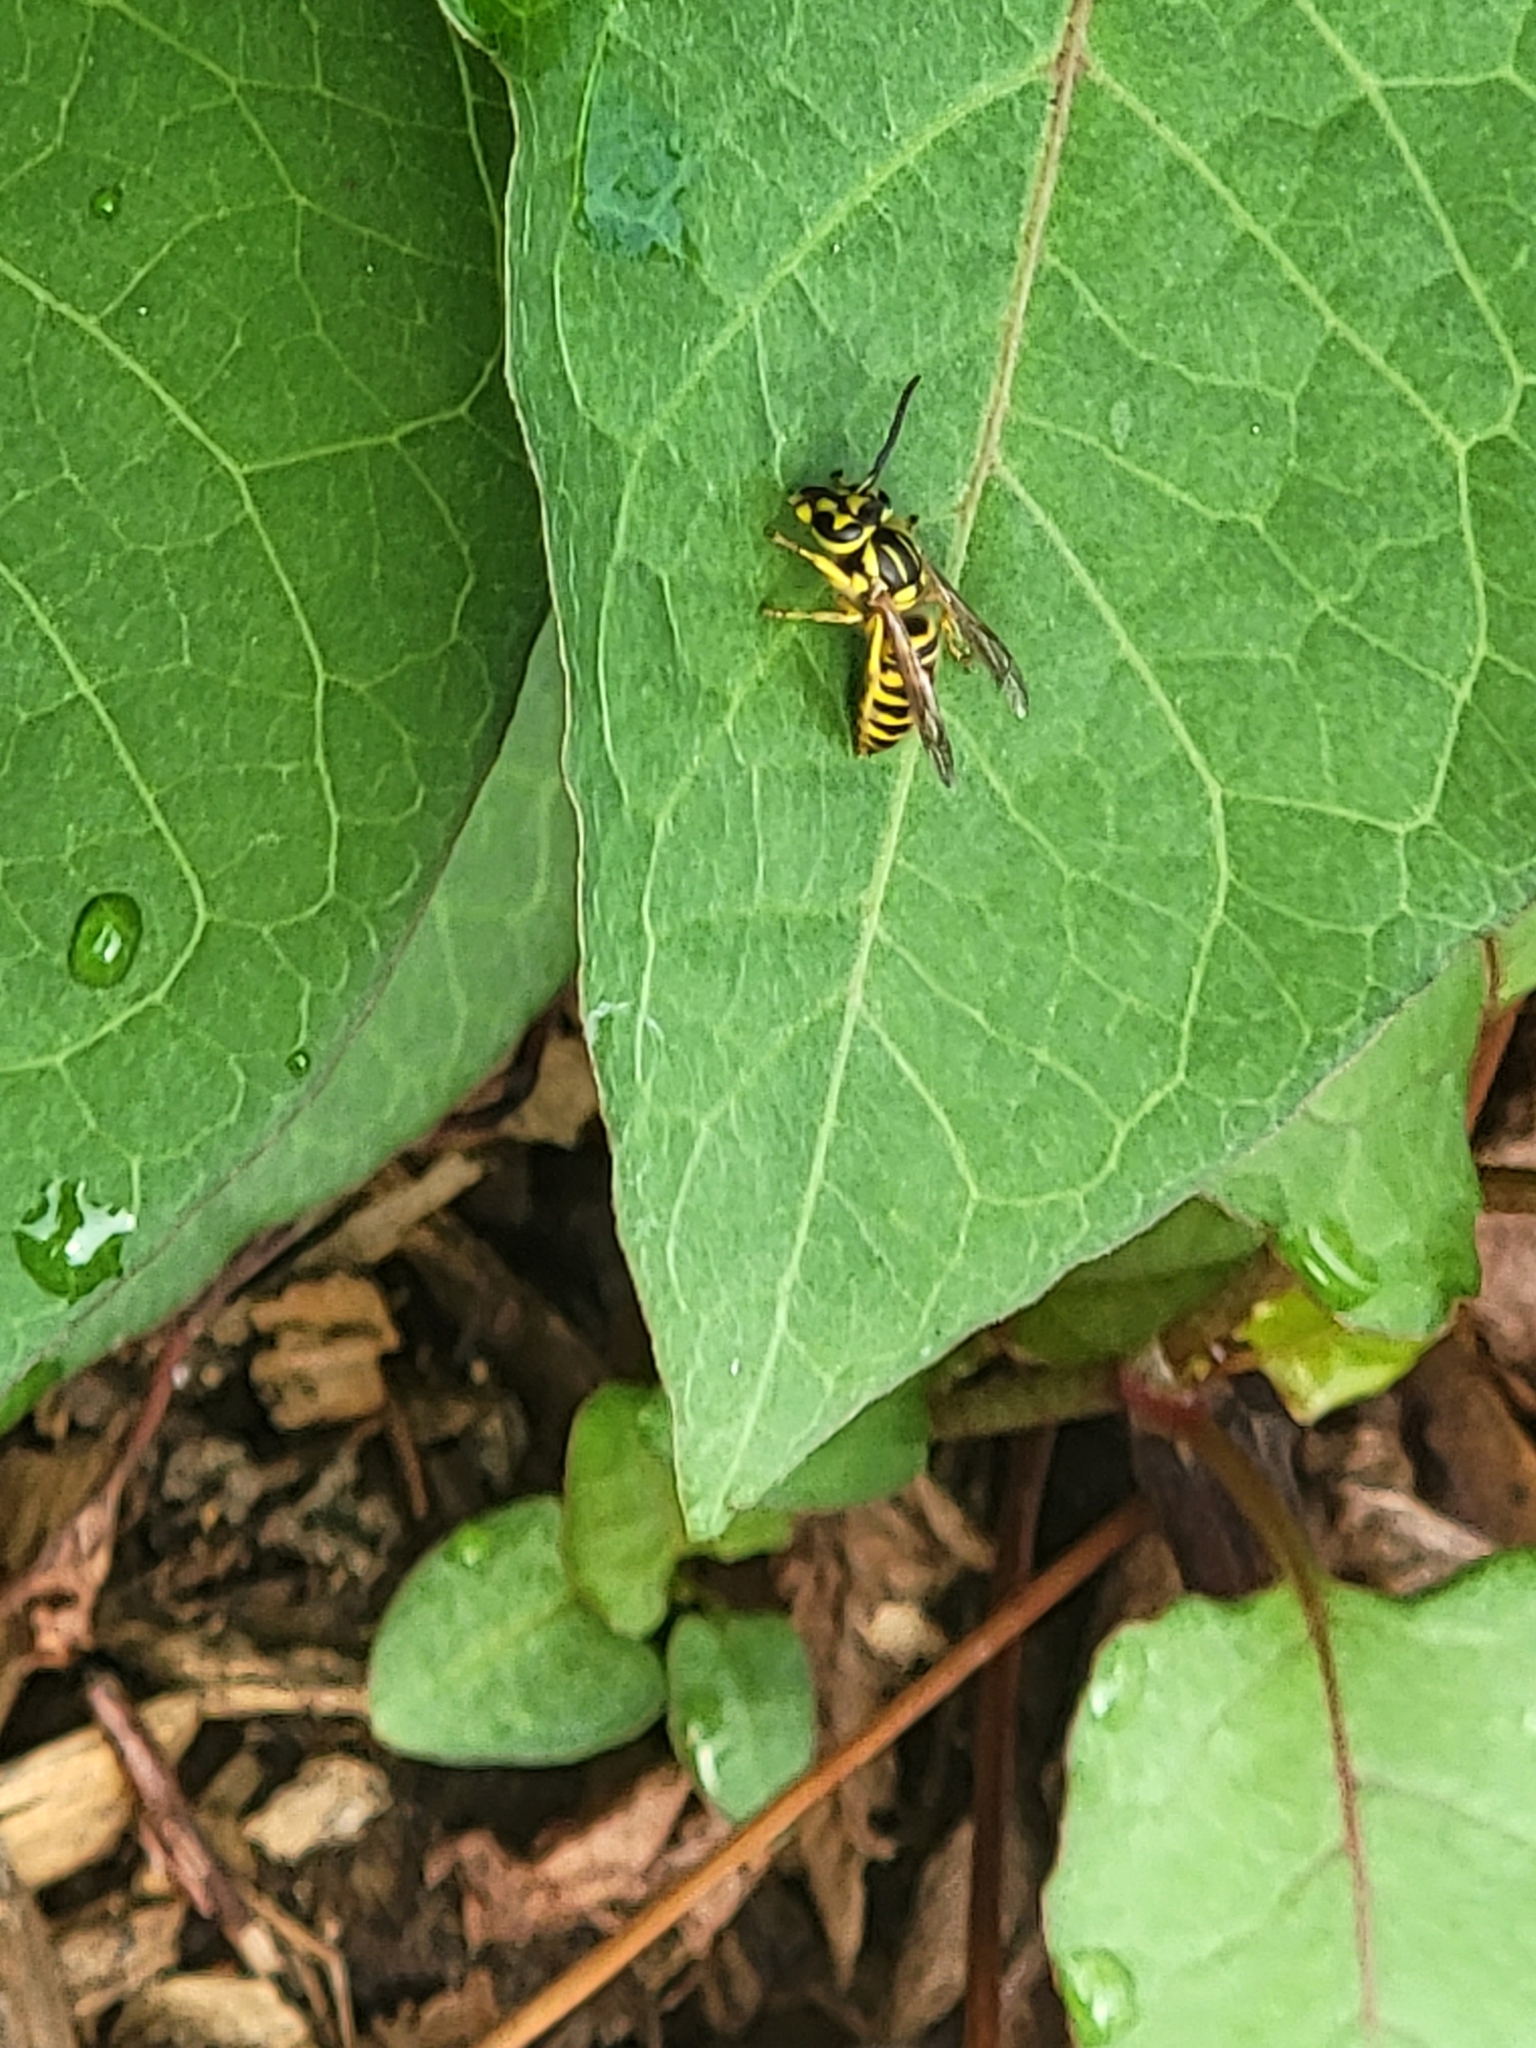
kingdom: Animalia
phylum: Arthropoda
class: Insecta
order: Hymenoptera
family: Vespidae
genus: Vespula
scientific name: Vespula squamosa
